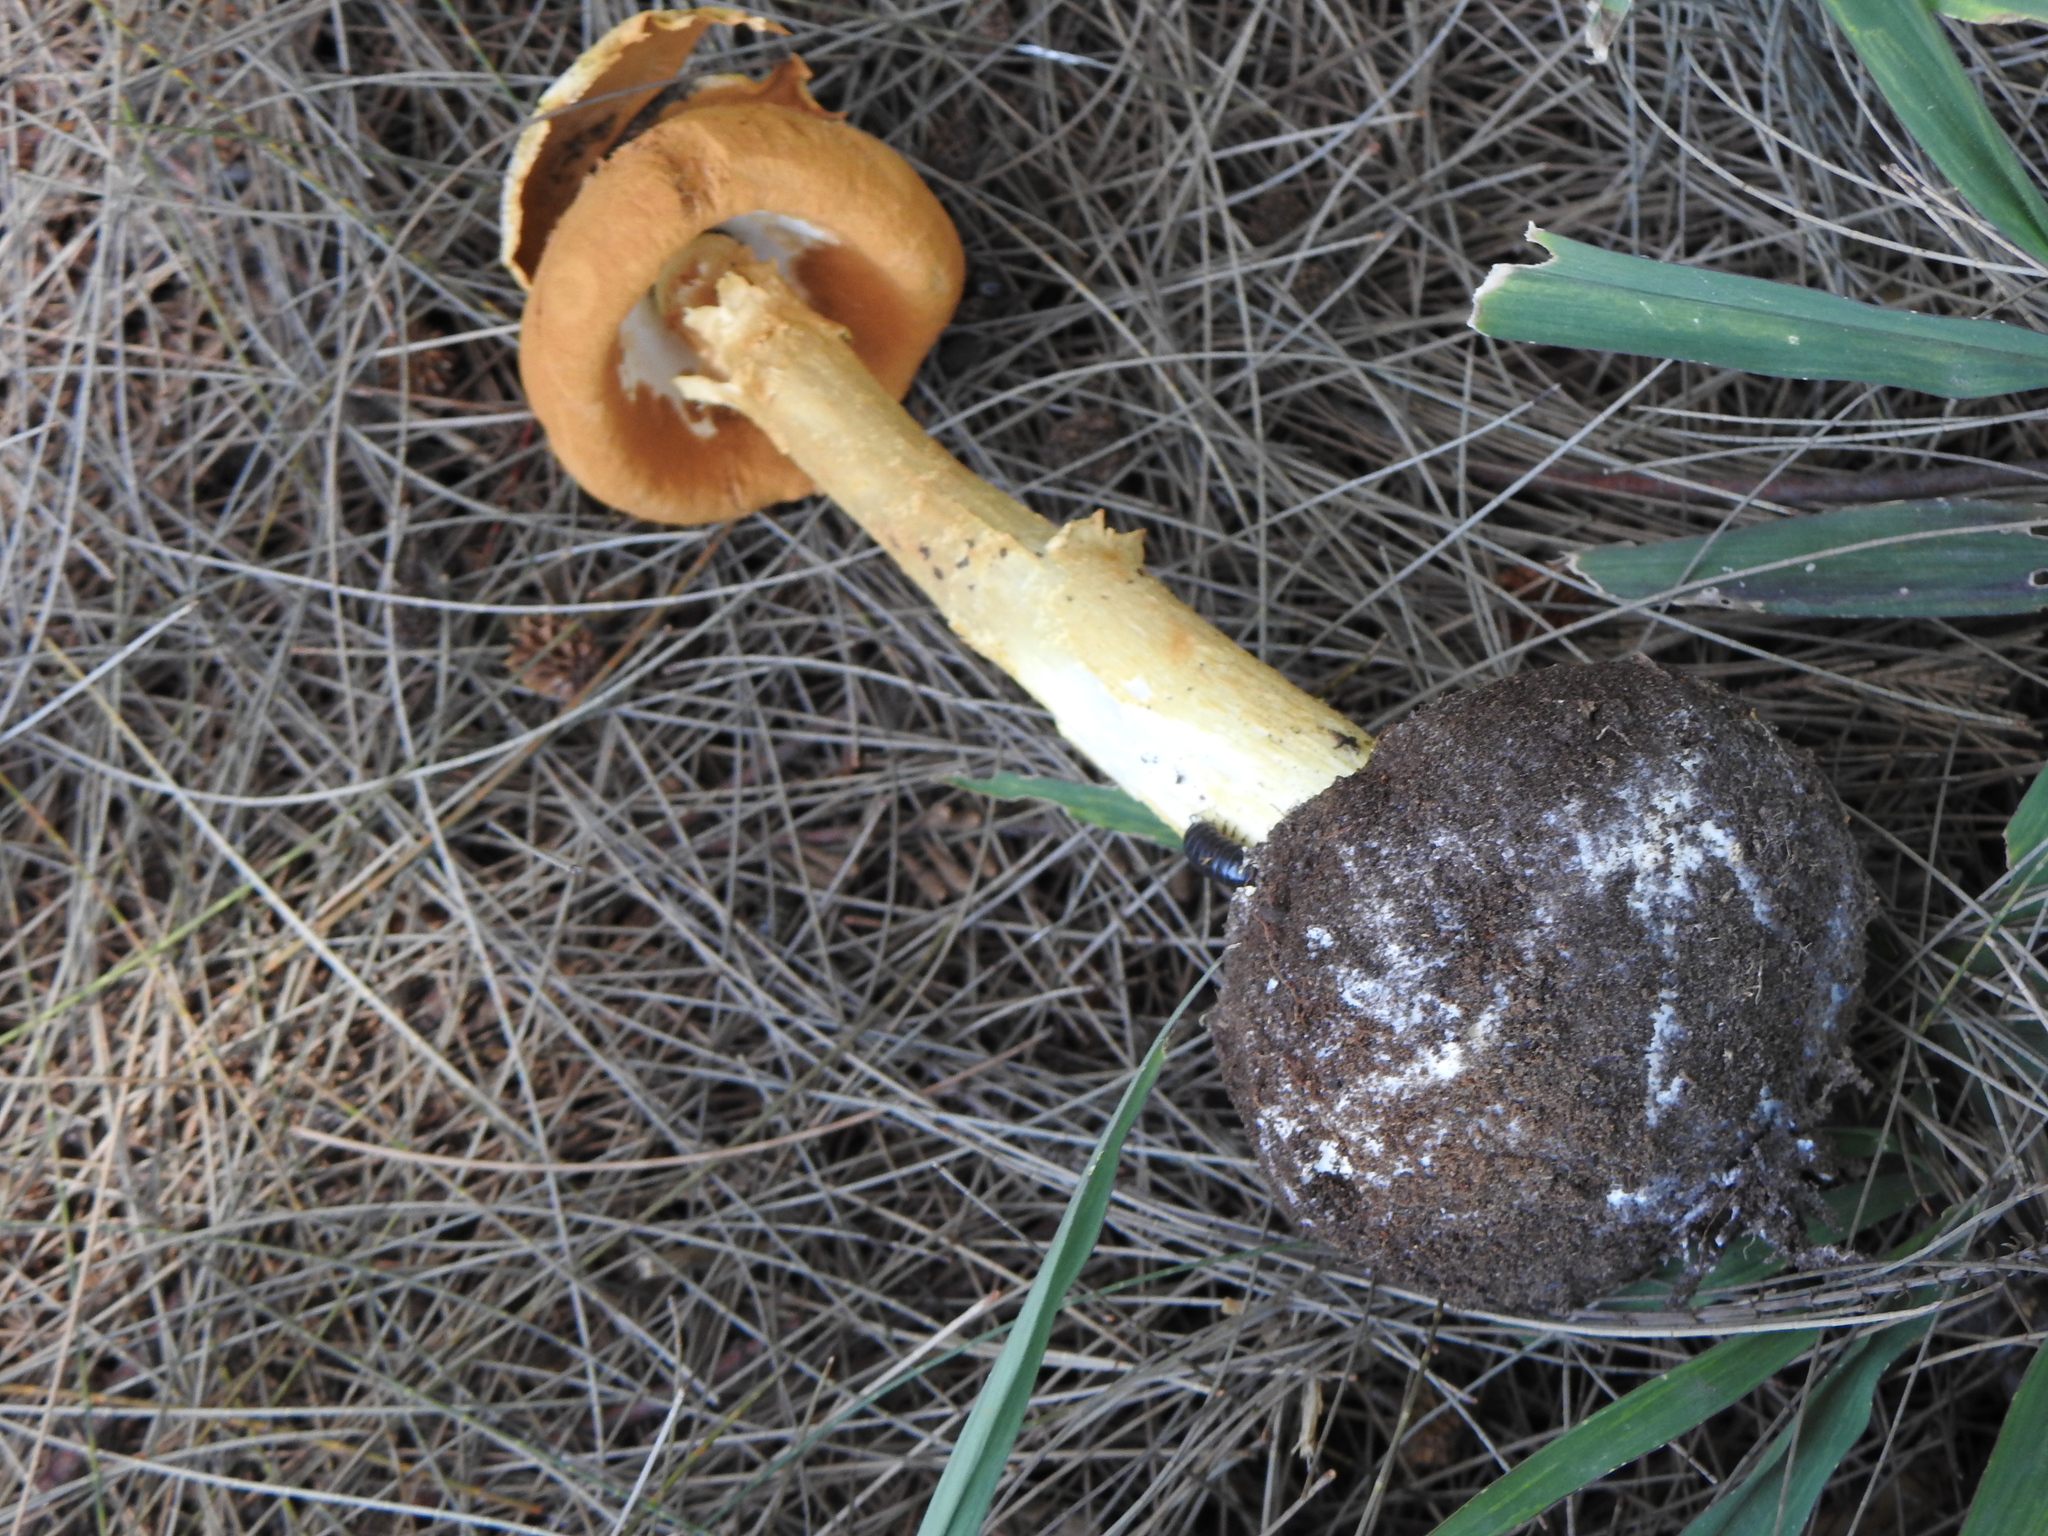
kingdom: Fungi
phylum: Basidiomycota
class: Agaricomycetes
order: Agaricales
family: Agaricaceae
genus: Battarrea
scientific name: Battarrea phalloides
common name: Sandy stiltball
